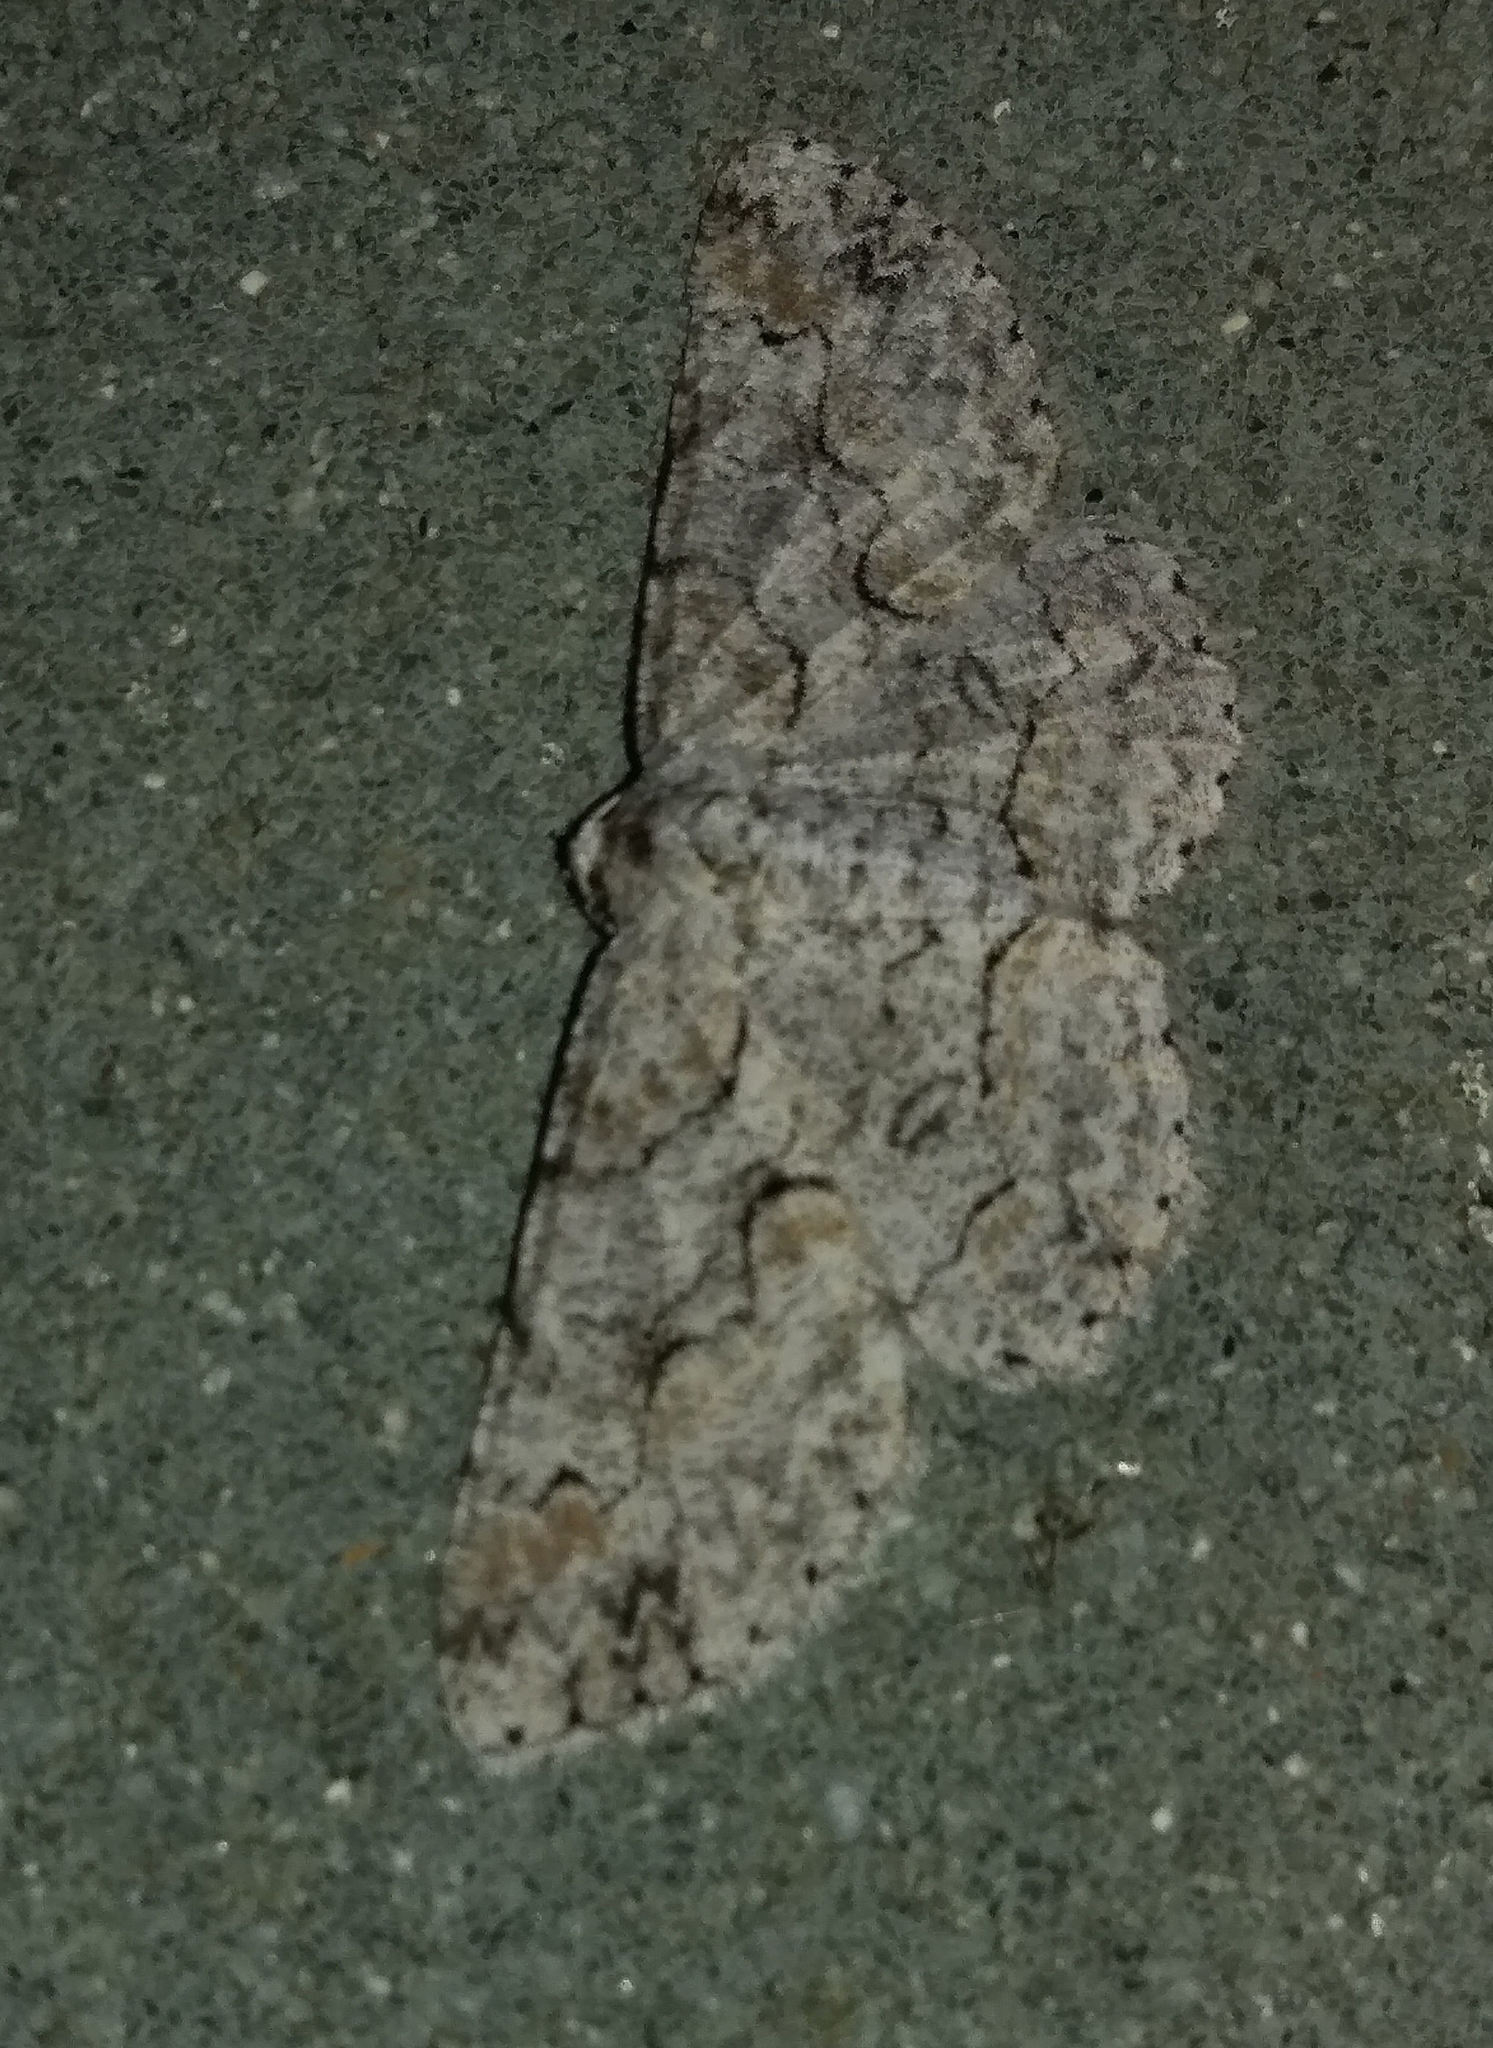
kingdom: Animalia
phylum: Arthropoda
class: Insecta
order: Lepidoptera
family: Geometridae
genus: Iridopsis
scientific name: Iridopsis defectaria
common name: Brown-shaded gray
